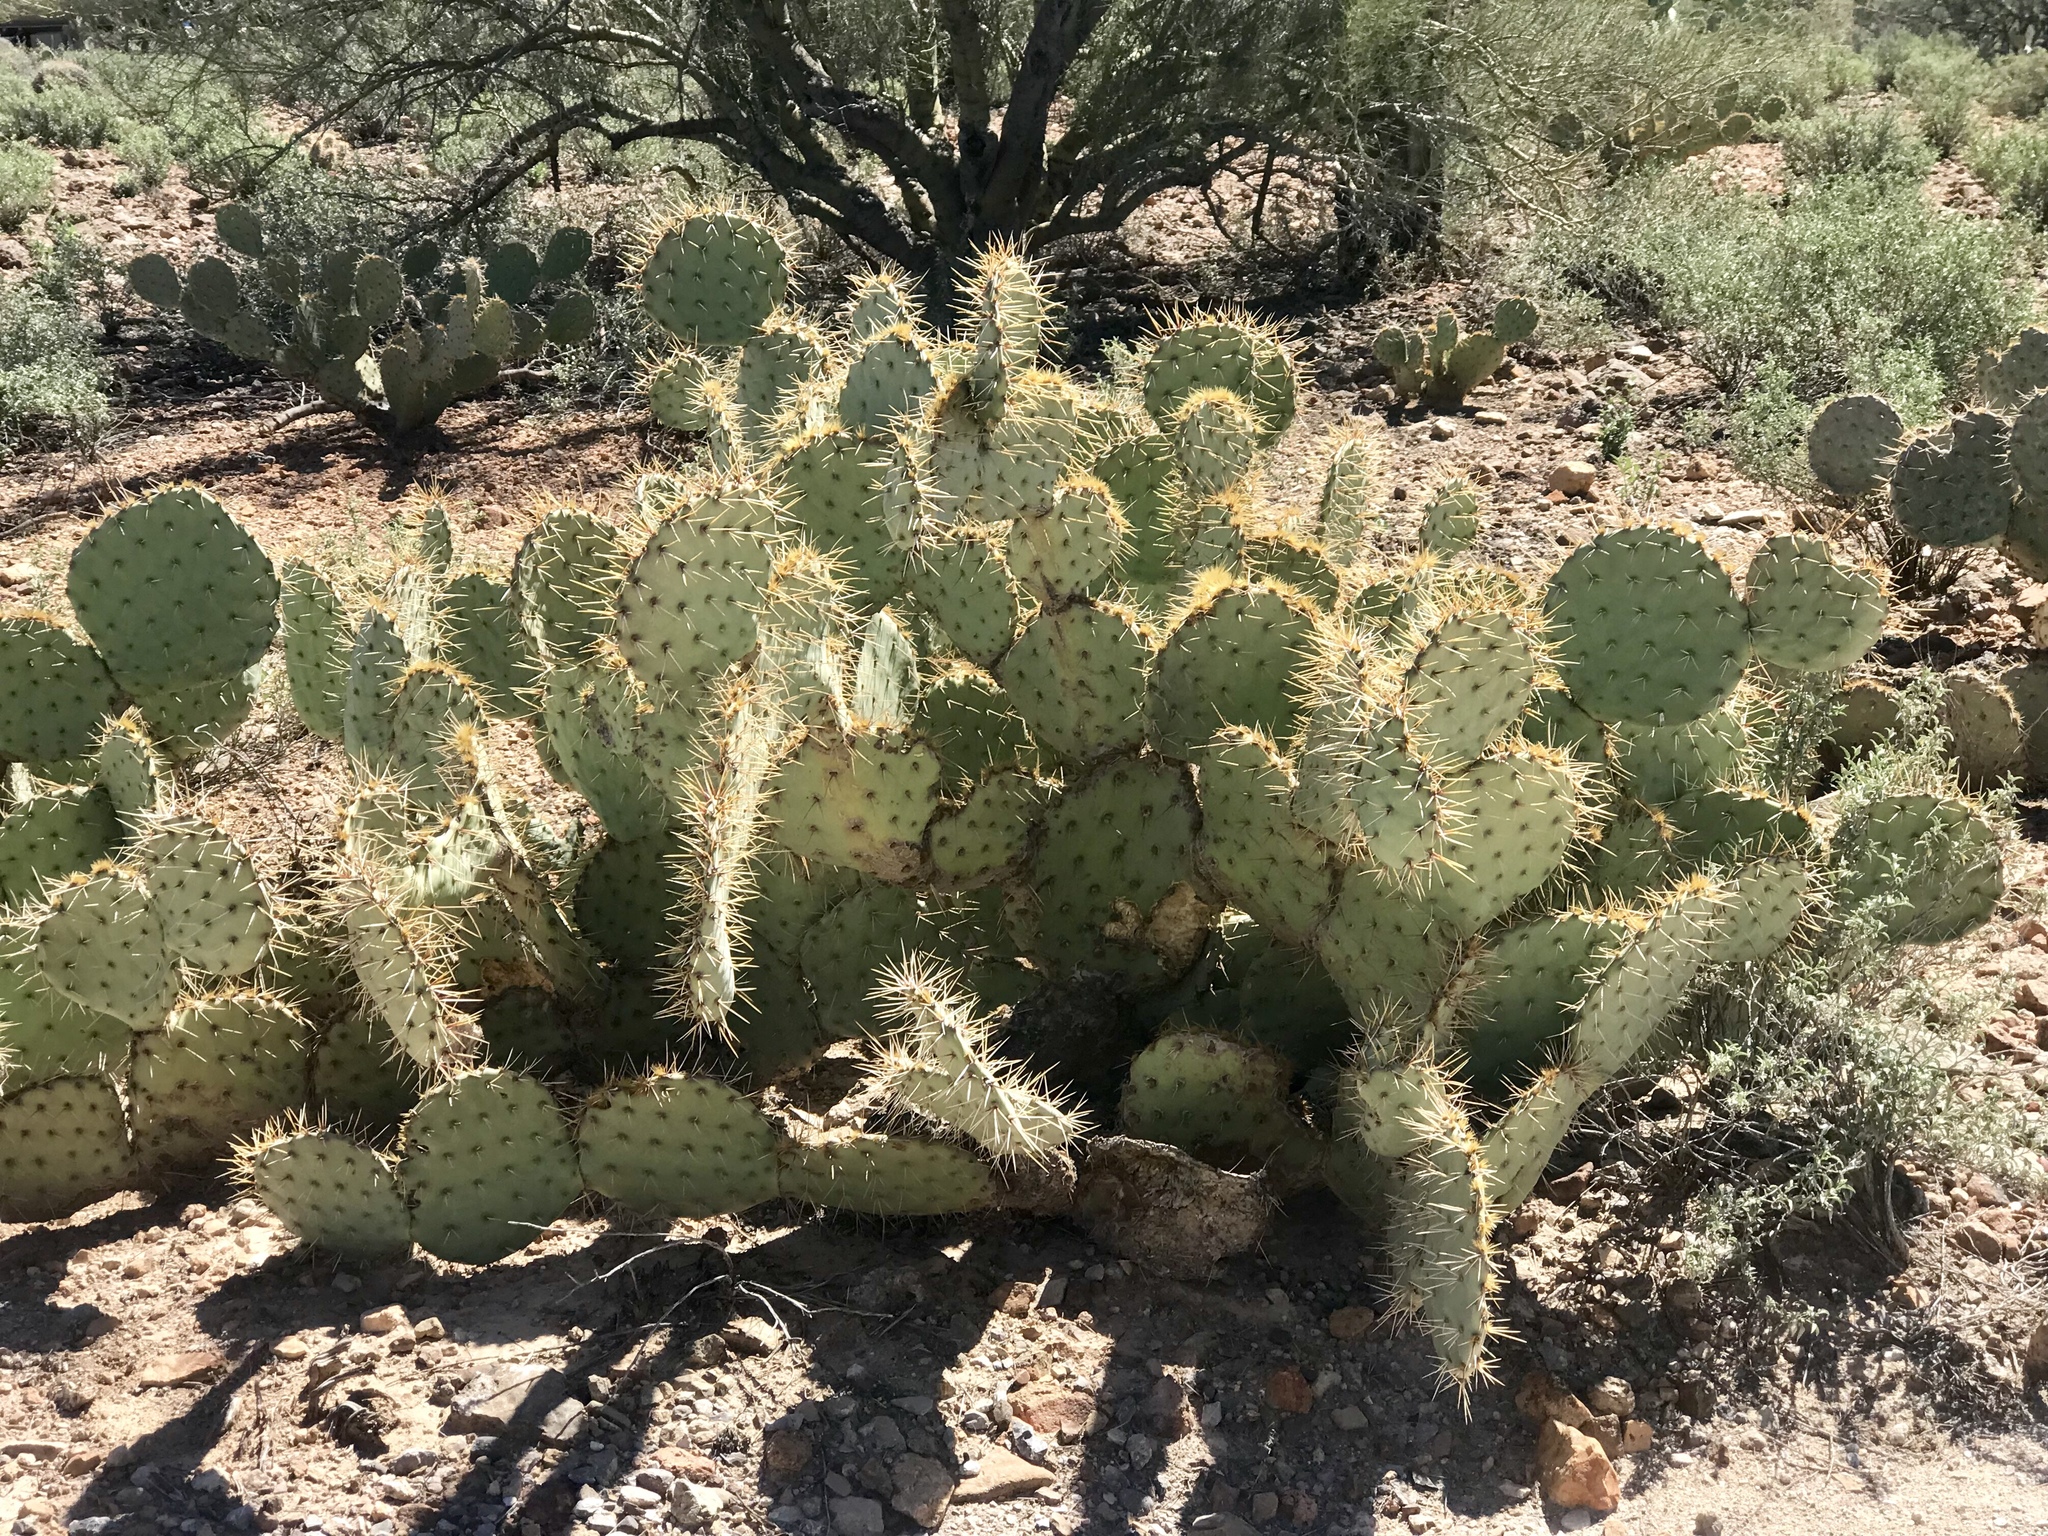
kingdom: Plantae
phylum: Tracheophyta
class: Magnoliopsida
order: Caryophyllales
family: Cactaceae
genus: Opuntia
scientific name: Opuntia engelmannii
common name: Cactus-apple
